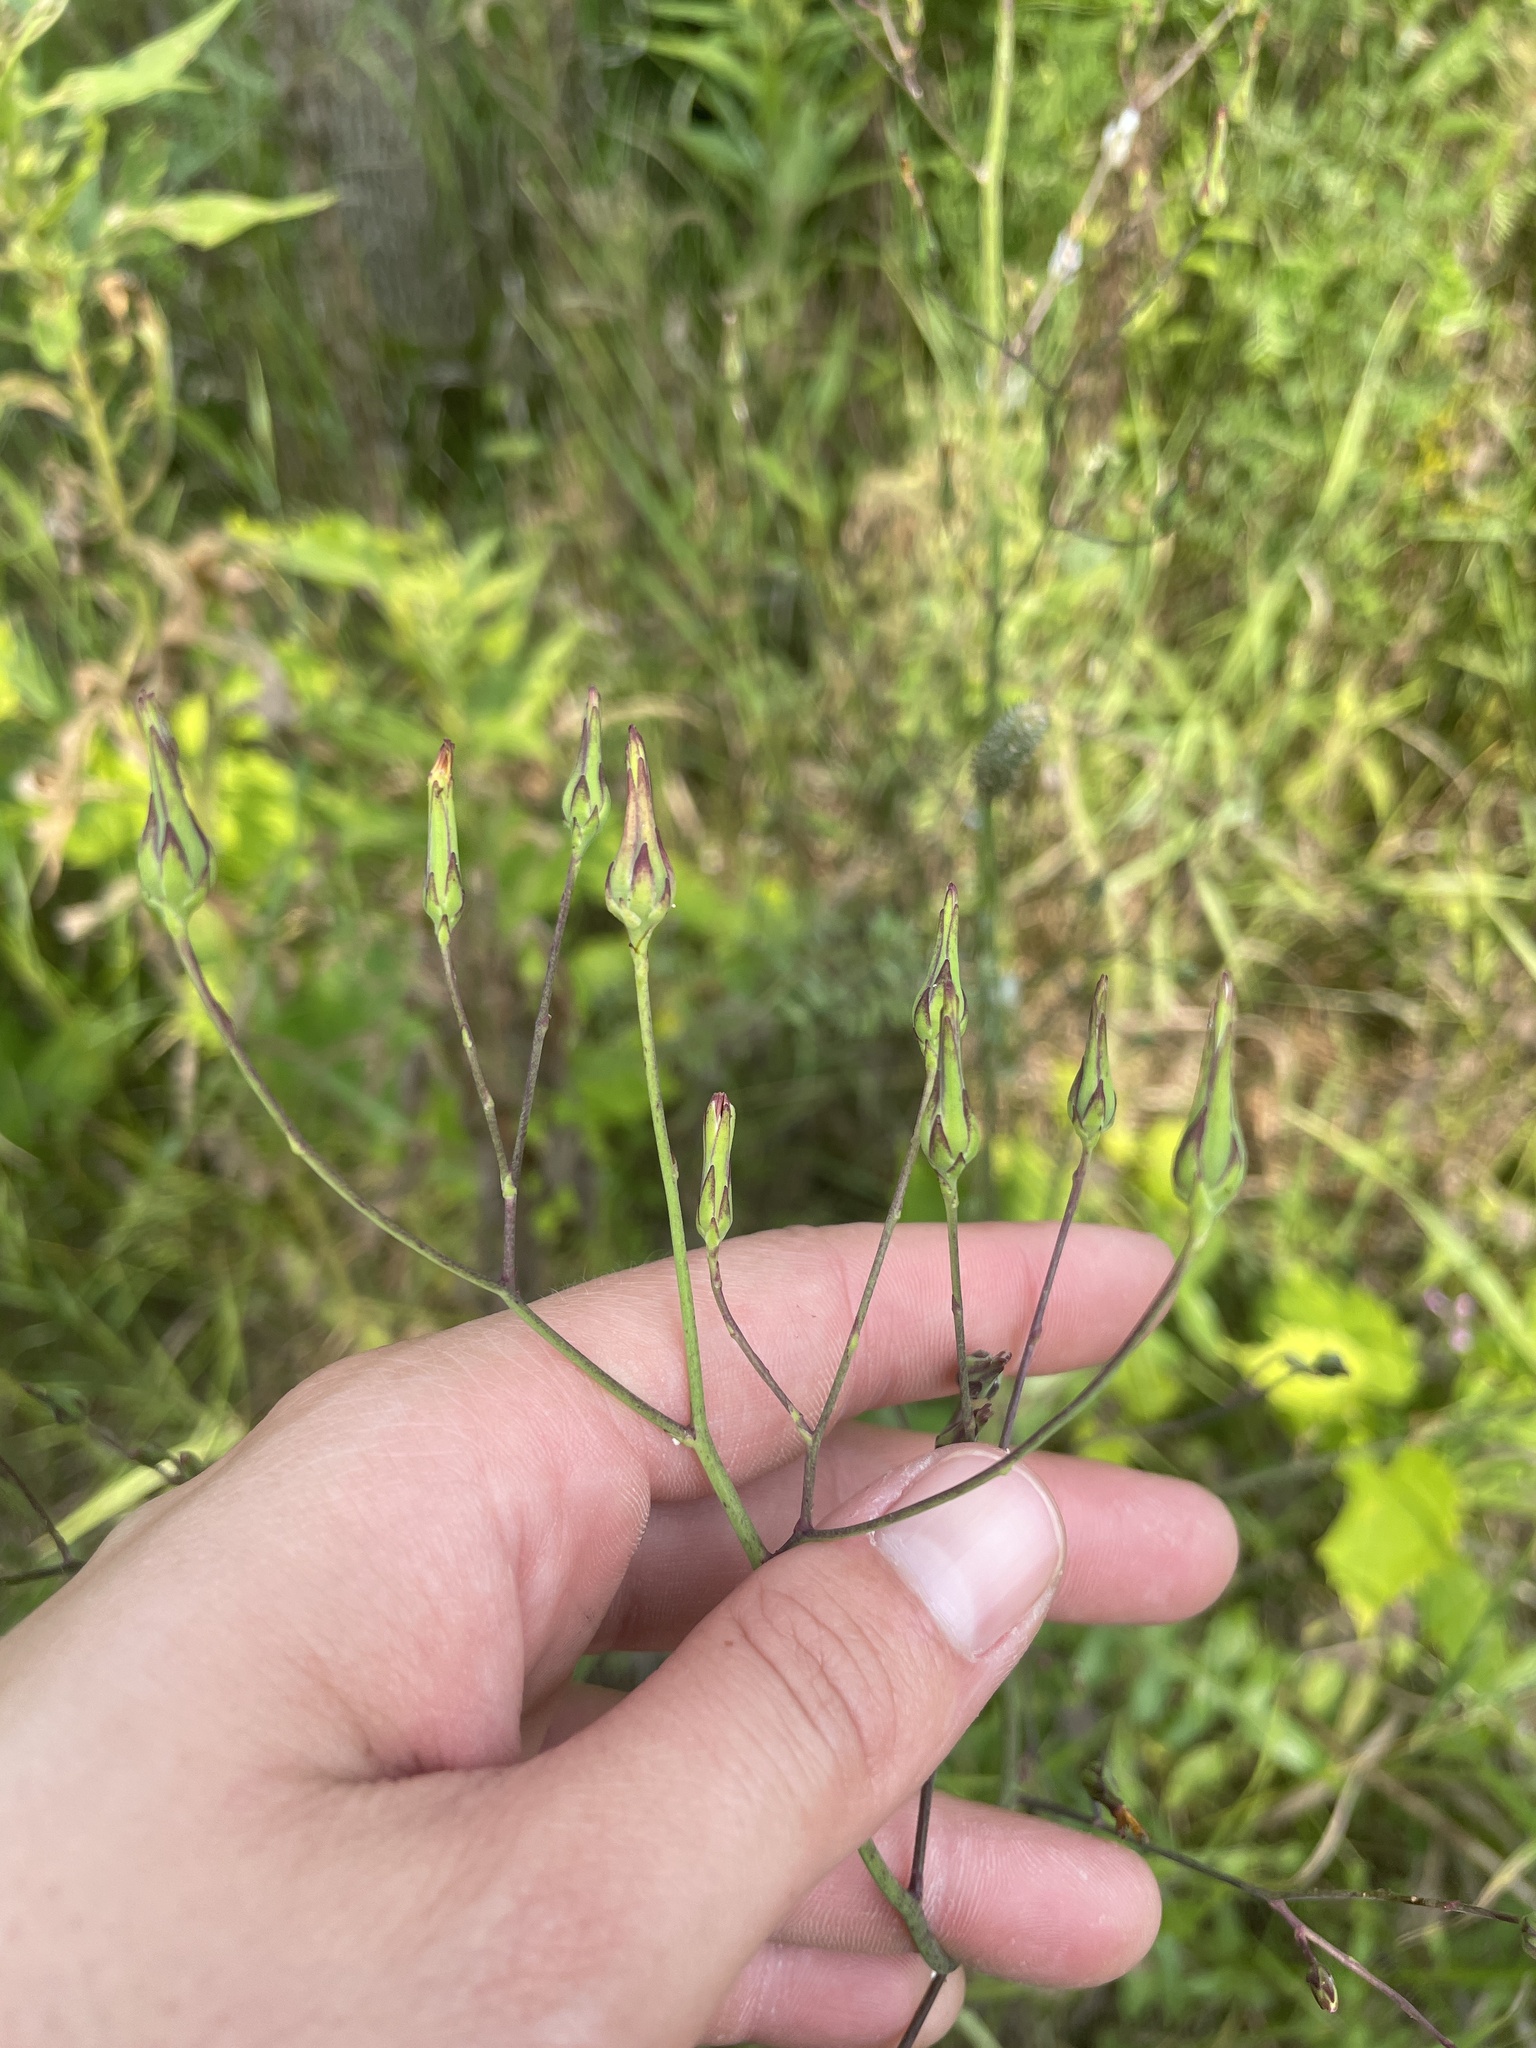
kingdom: Plantae
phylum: Tracheophyta
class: Magnoliopsida
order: Asterales
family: Asteraceae
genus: Lactuca
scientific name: Lactuca canadensis
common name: Canada lettuce
